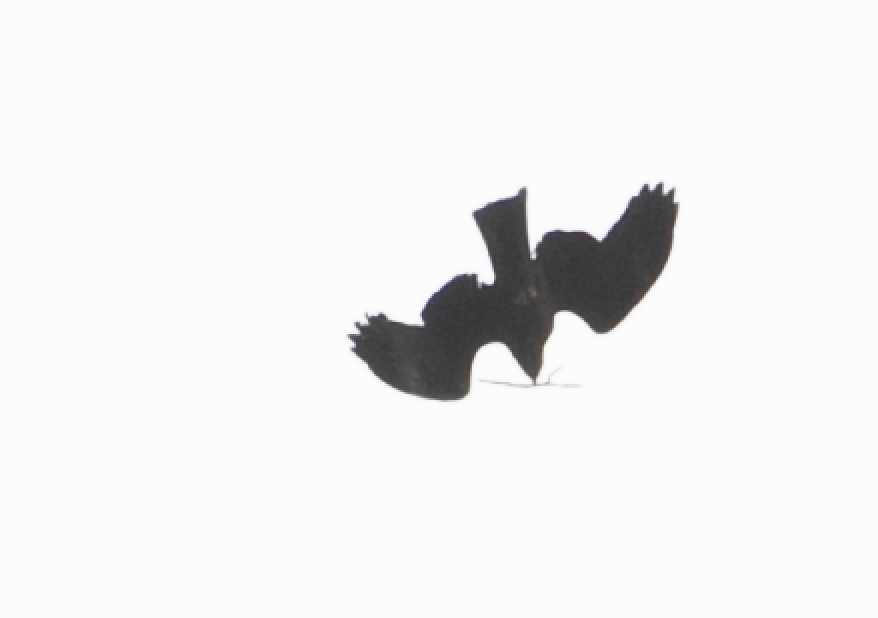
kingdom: Animalia
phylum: Chordata
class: Aves
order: Accipitriformes
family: Accipitridae
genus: Milvus
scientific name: Milvus migrans
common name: Black kite
